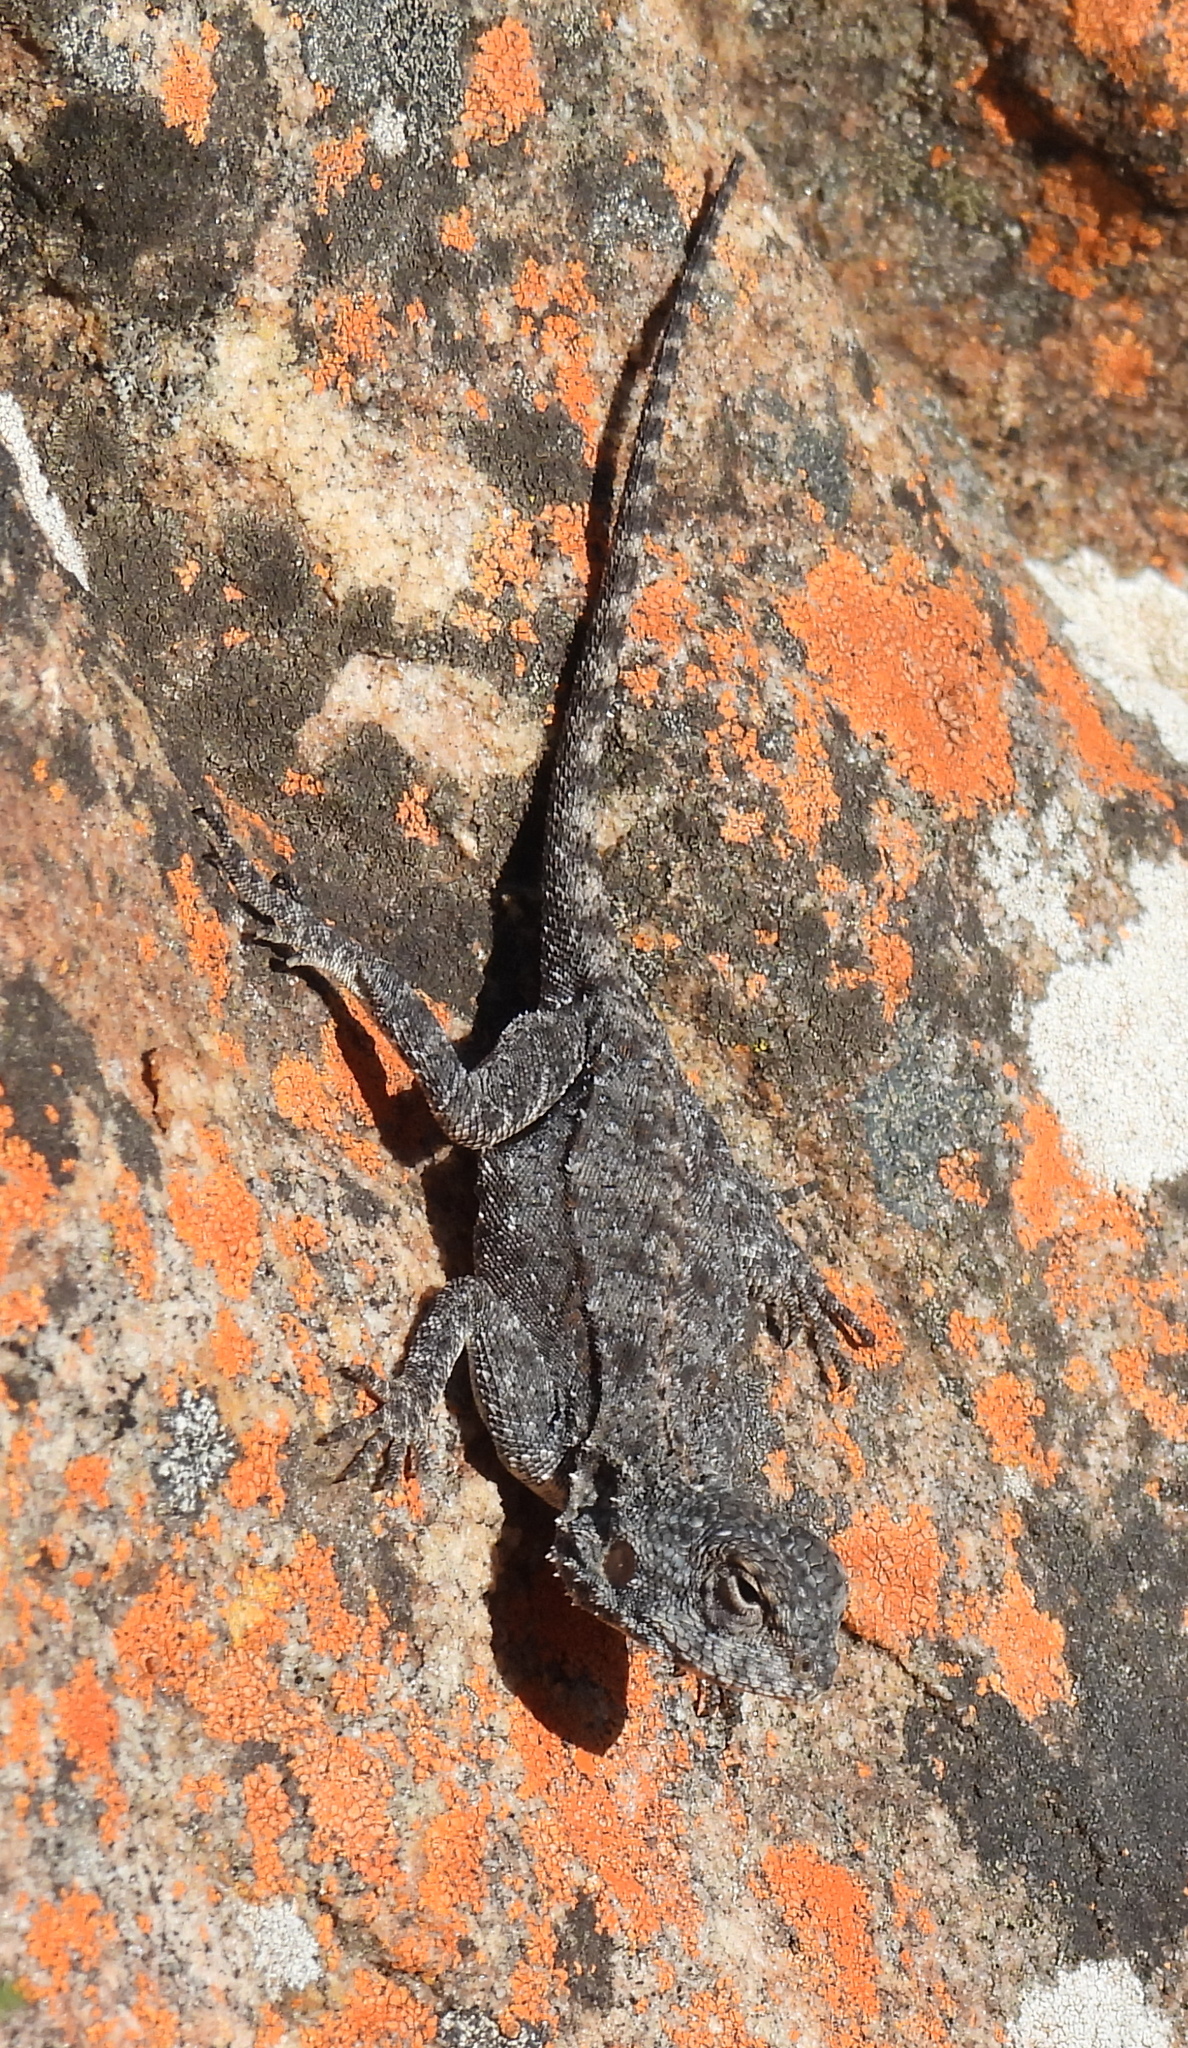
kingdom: Animalia
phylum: Chordata
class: Squamata
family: Agamidae
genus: Agama
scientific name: Agama atra
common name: Southern african rock agama
